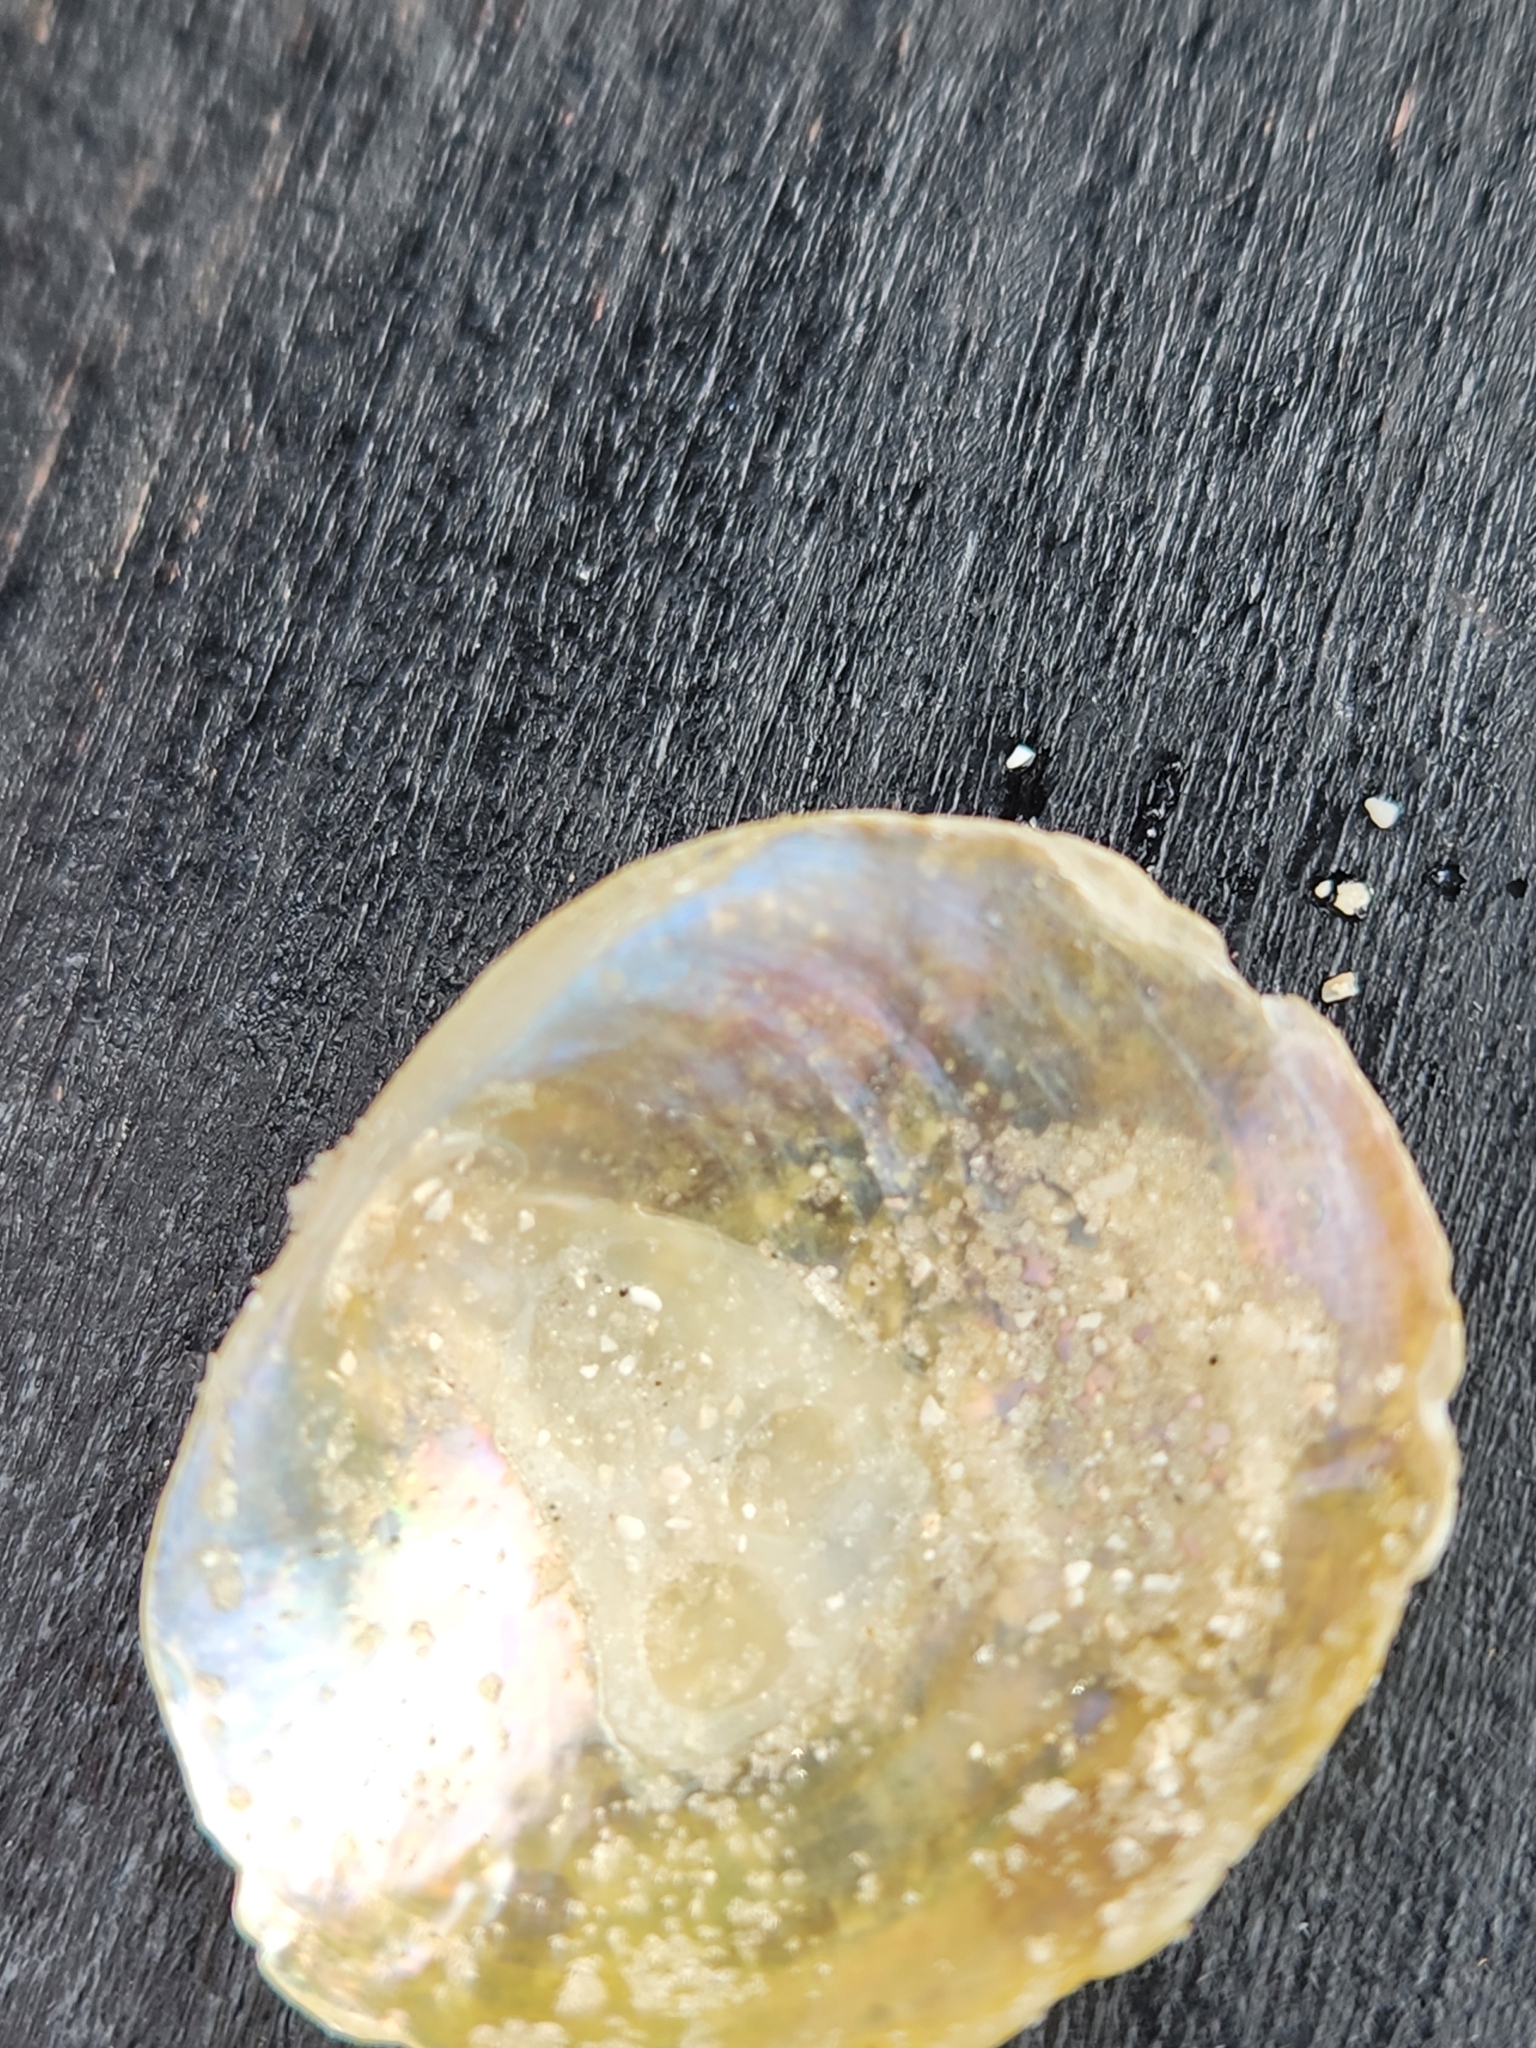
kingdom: Animalia
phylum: Mollusca
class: Bivalvia
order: Pectinida
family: Anomiidae
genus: Anomia
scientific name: Anomia simplex
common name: Common jingle shell
